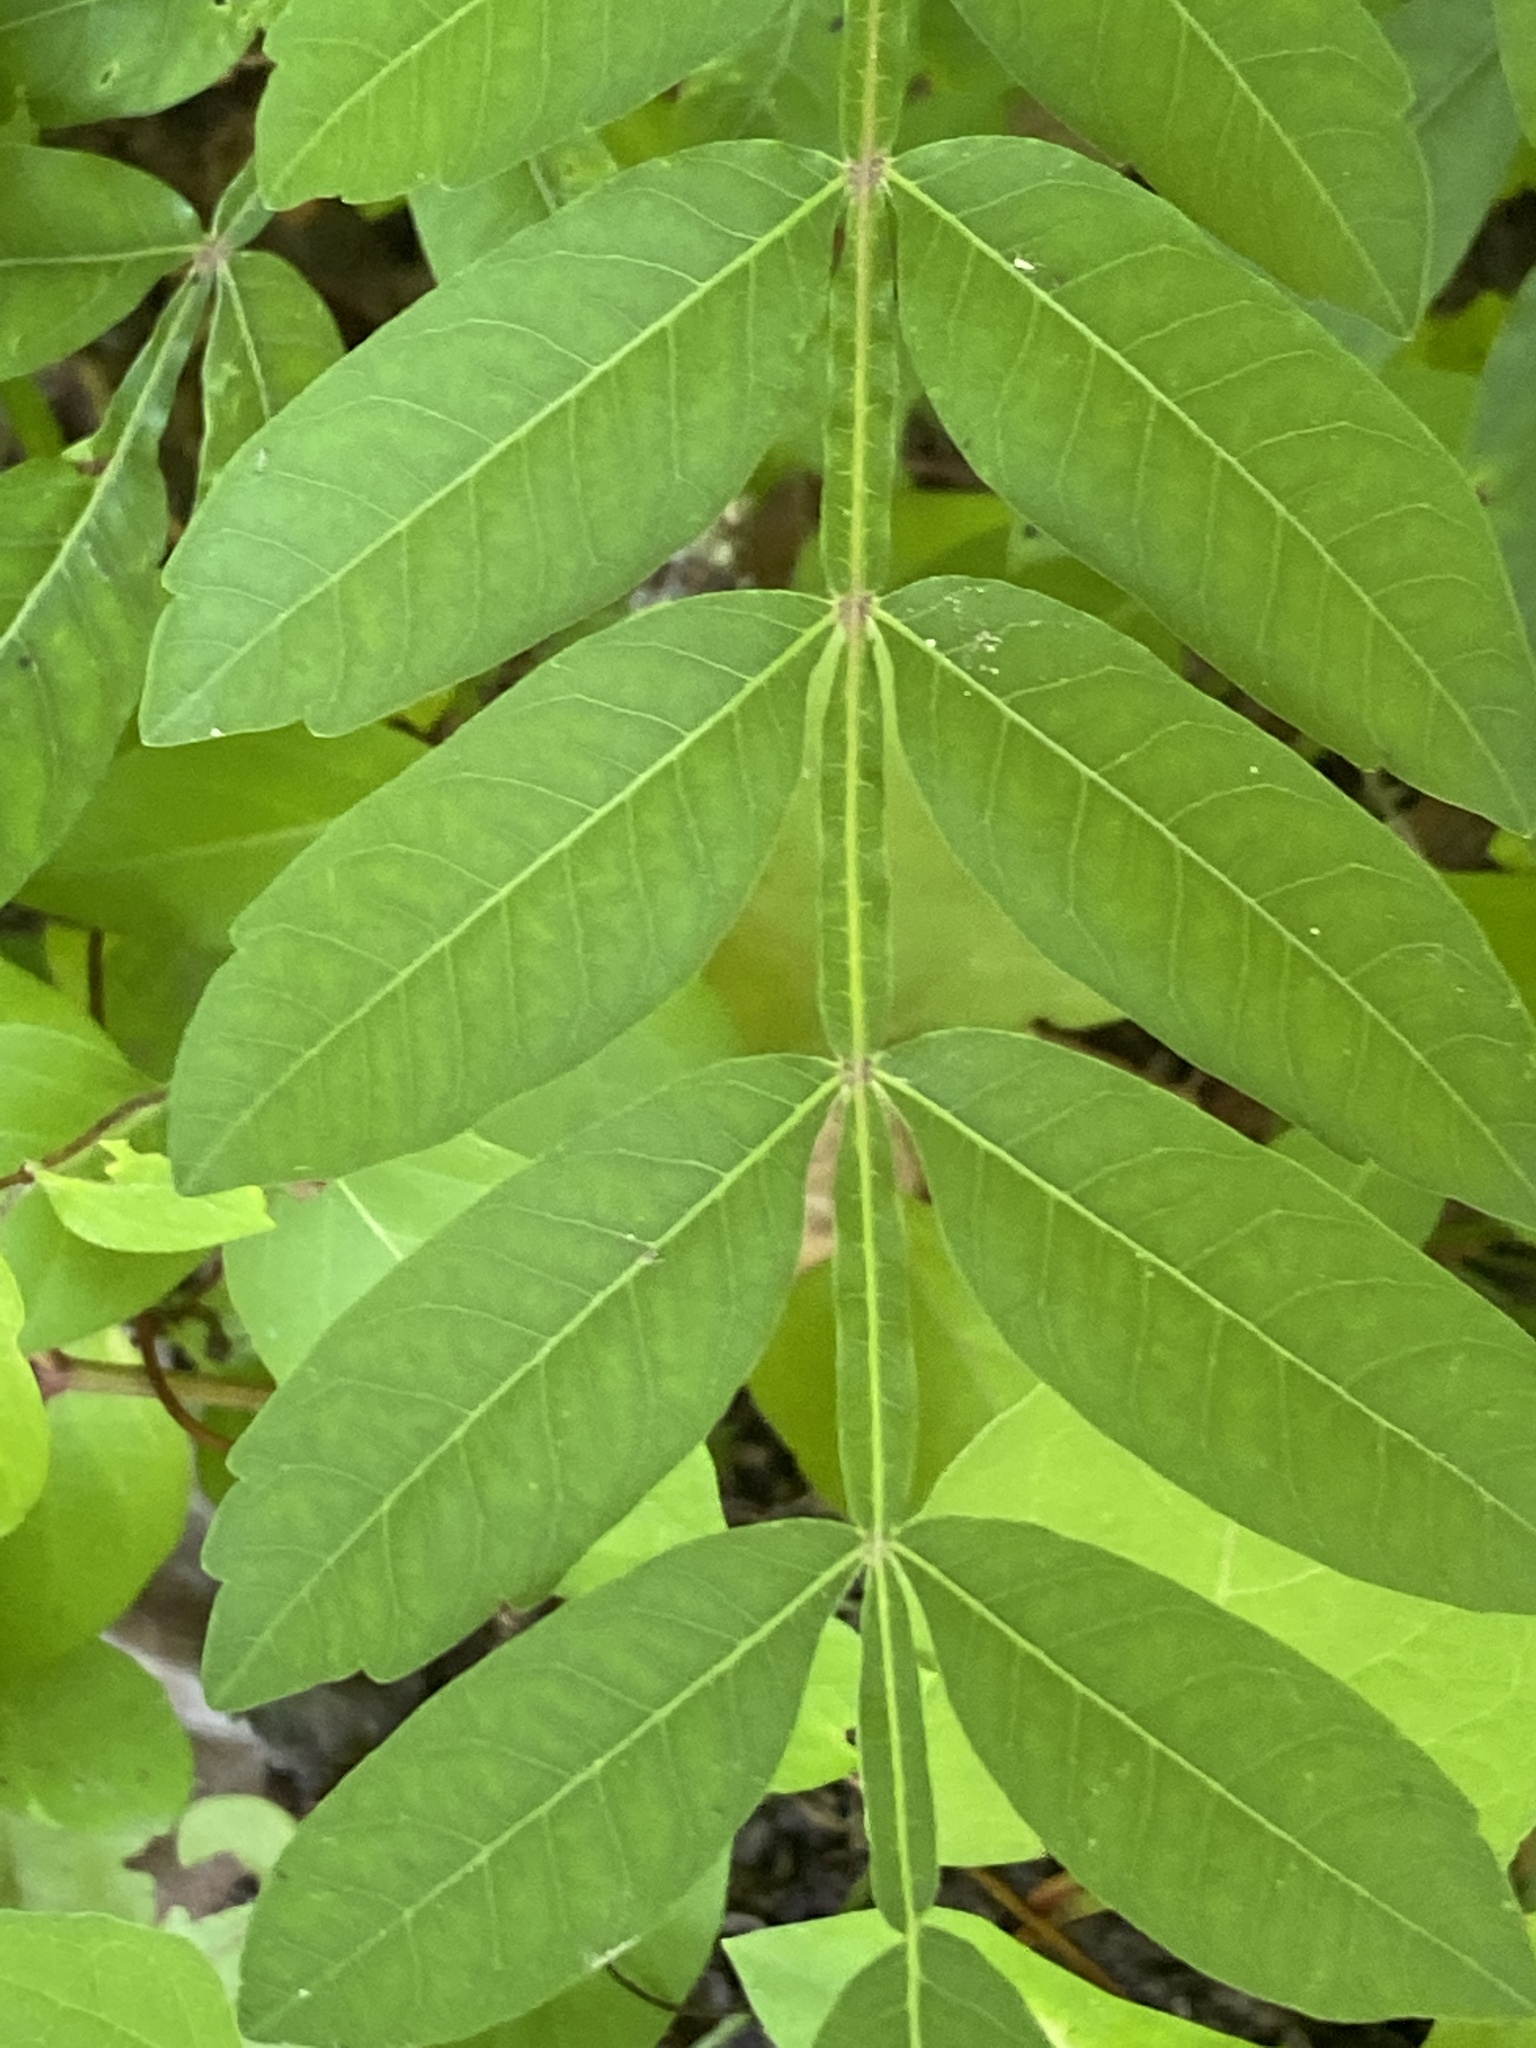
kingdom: Plantae
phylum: Tracheophyta
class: Magnoliopsida
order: Sapindales
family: Anacardiaceae
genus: Rhus
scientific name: Rhus copallina
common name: Shining sumac
